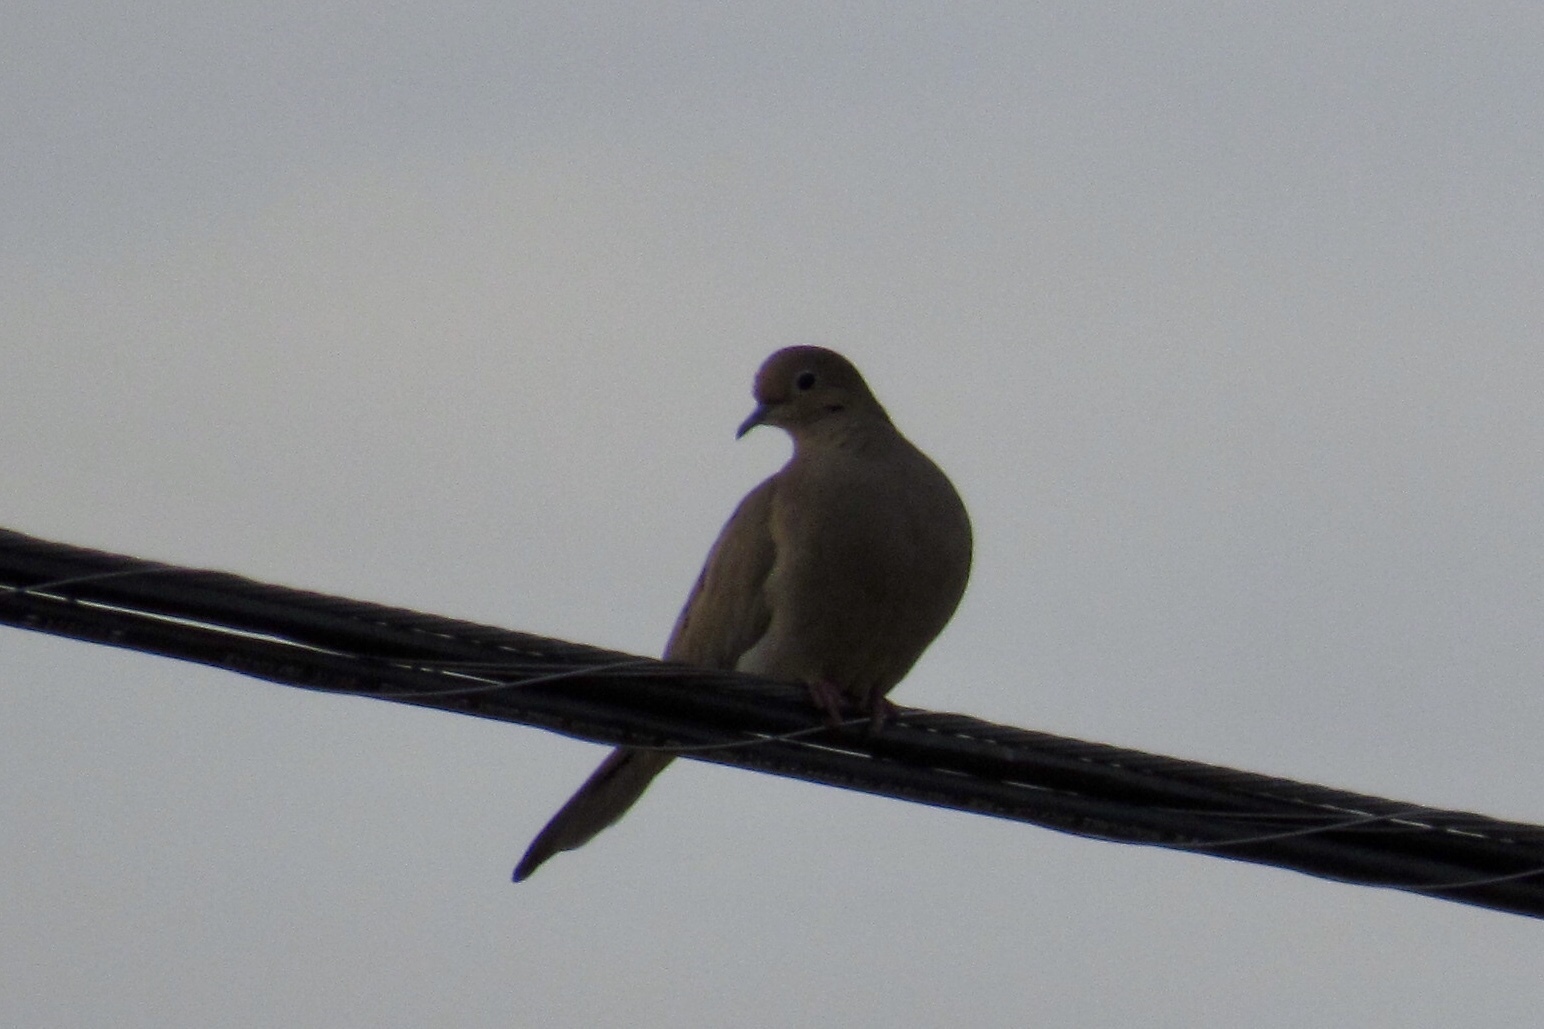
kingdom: Animalia
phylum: Chordata
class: Aves
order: Columbiformes
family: Columbidae
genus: Zenaida
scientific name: Zenaida macroura
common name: Mourning dove
